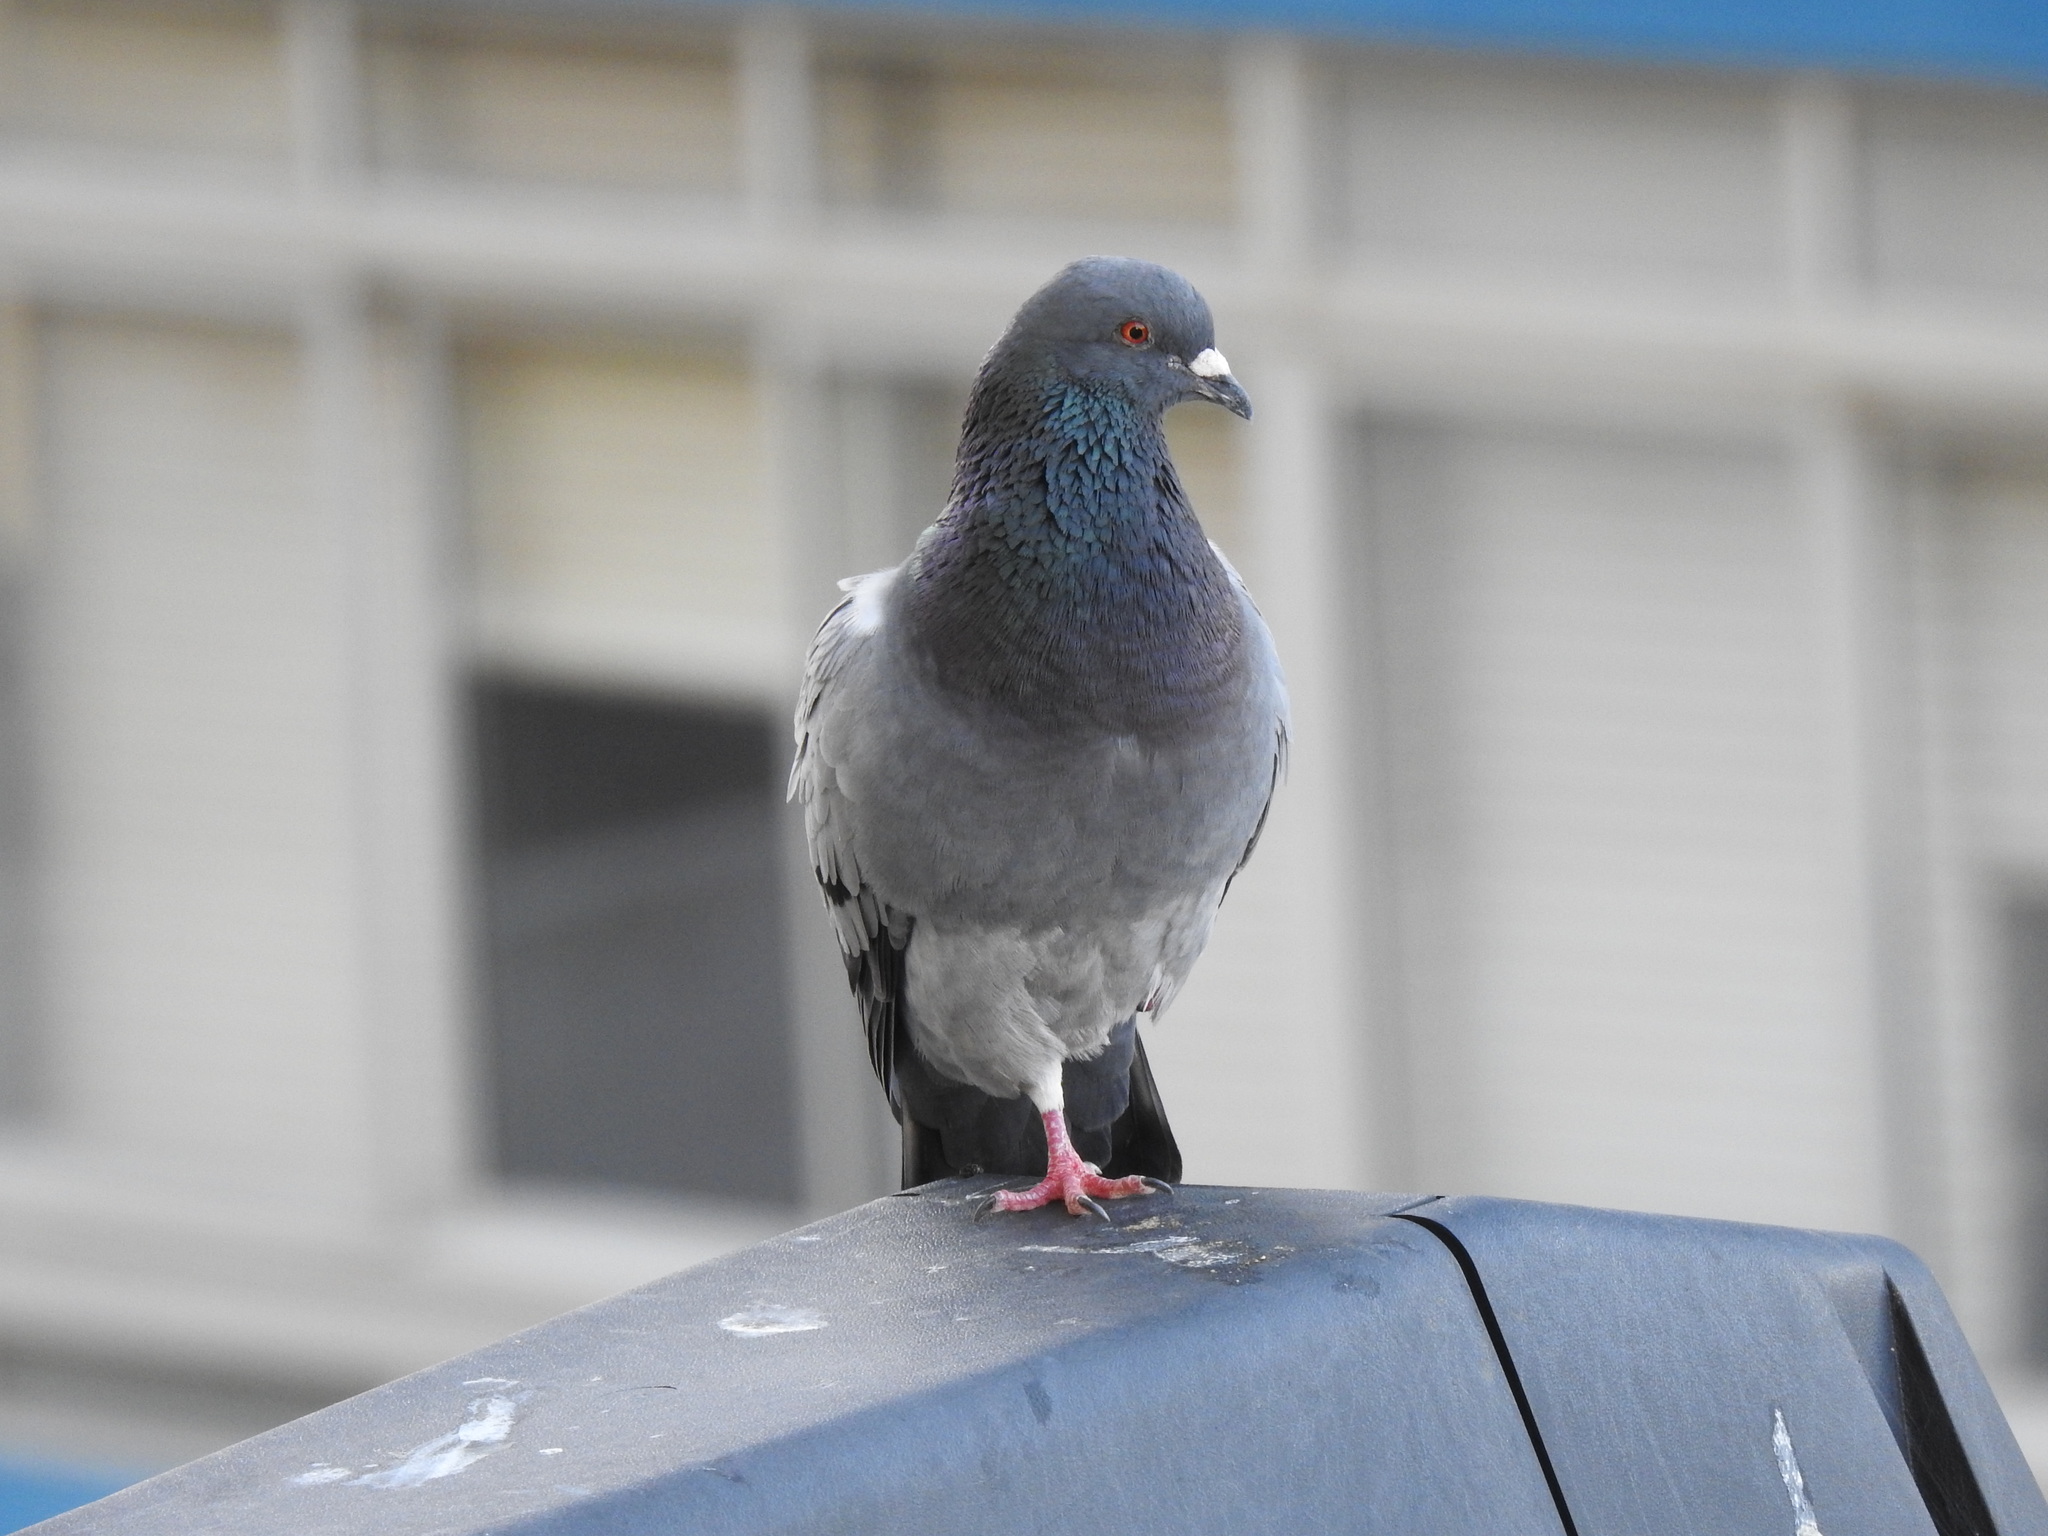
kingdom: Animalia
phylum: Chordata
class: Aves
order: Columbiformes
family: Columbidae
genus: Columba
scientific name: Columba livia
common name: Rock pigeon
